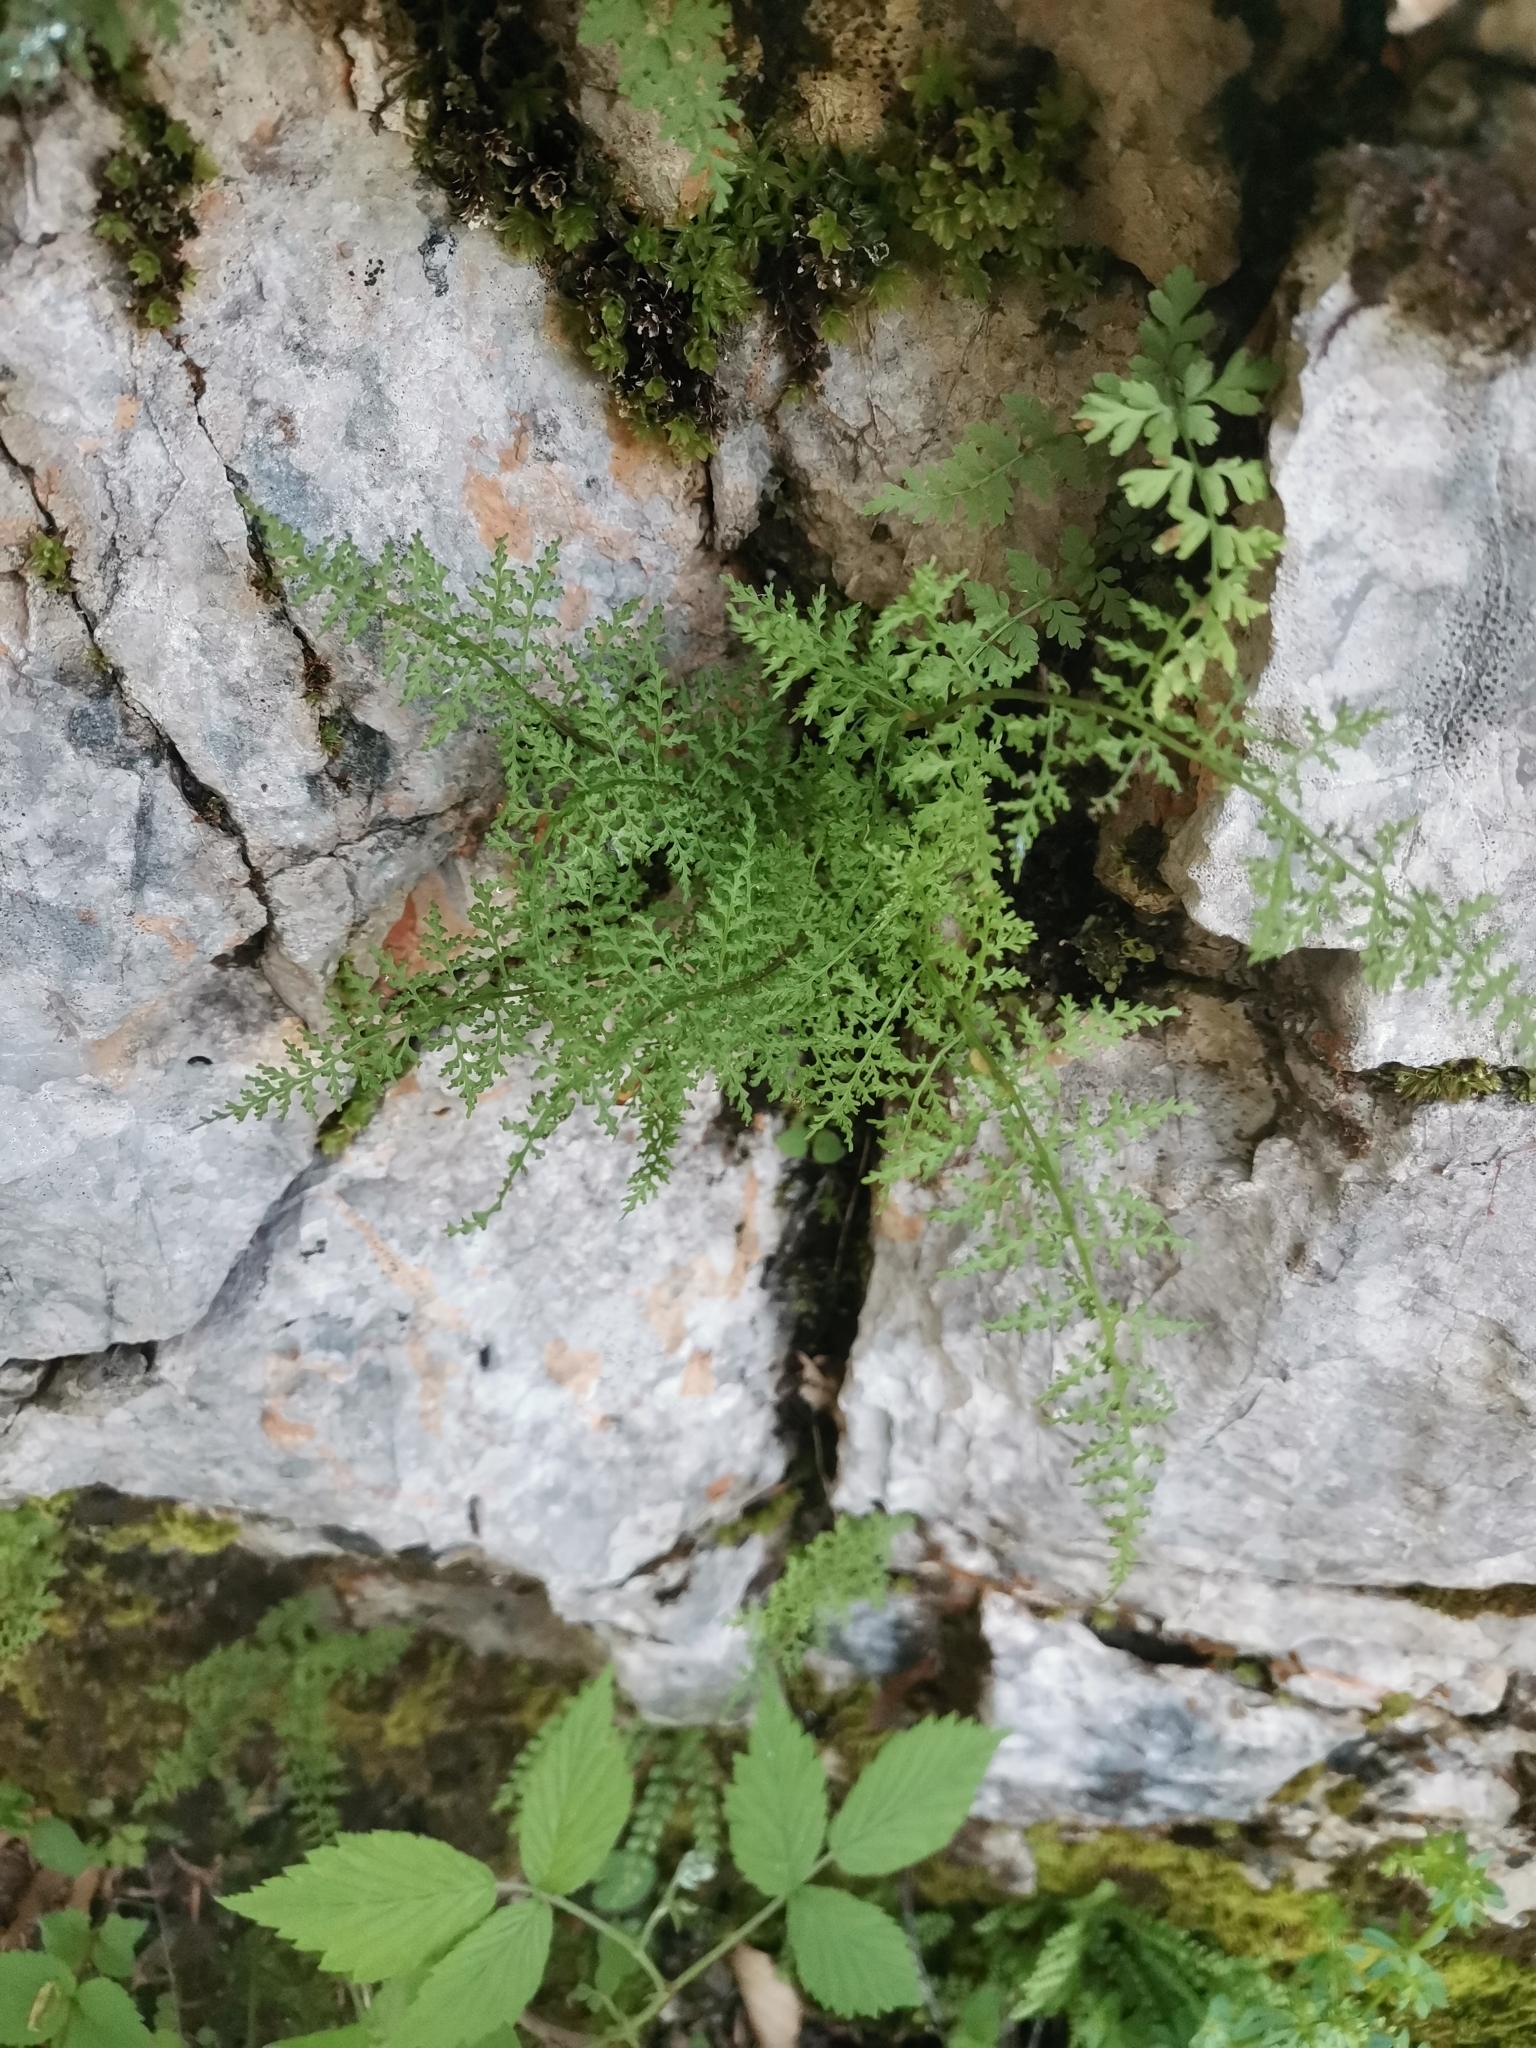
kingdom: Plantae
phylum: Tracheophyta
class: Polypodiopsida
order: Polypodiales
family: Cystopteridaceae
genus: Cystopteris
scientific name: Cystopteris alpina
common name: Alpine bladder-fern
